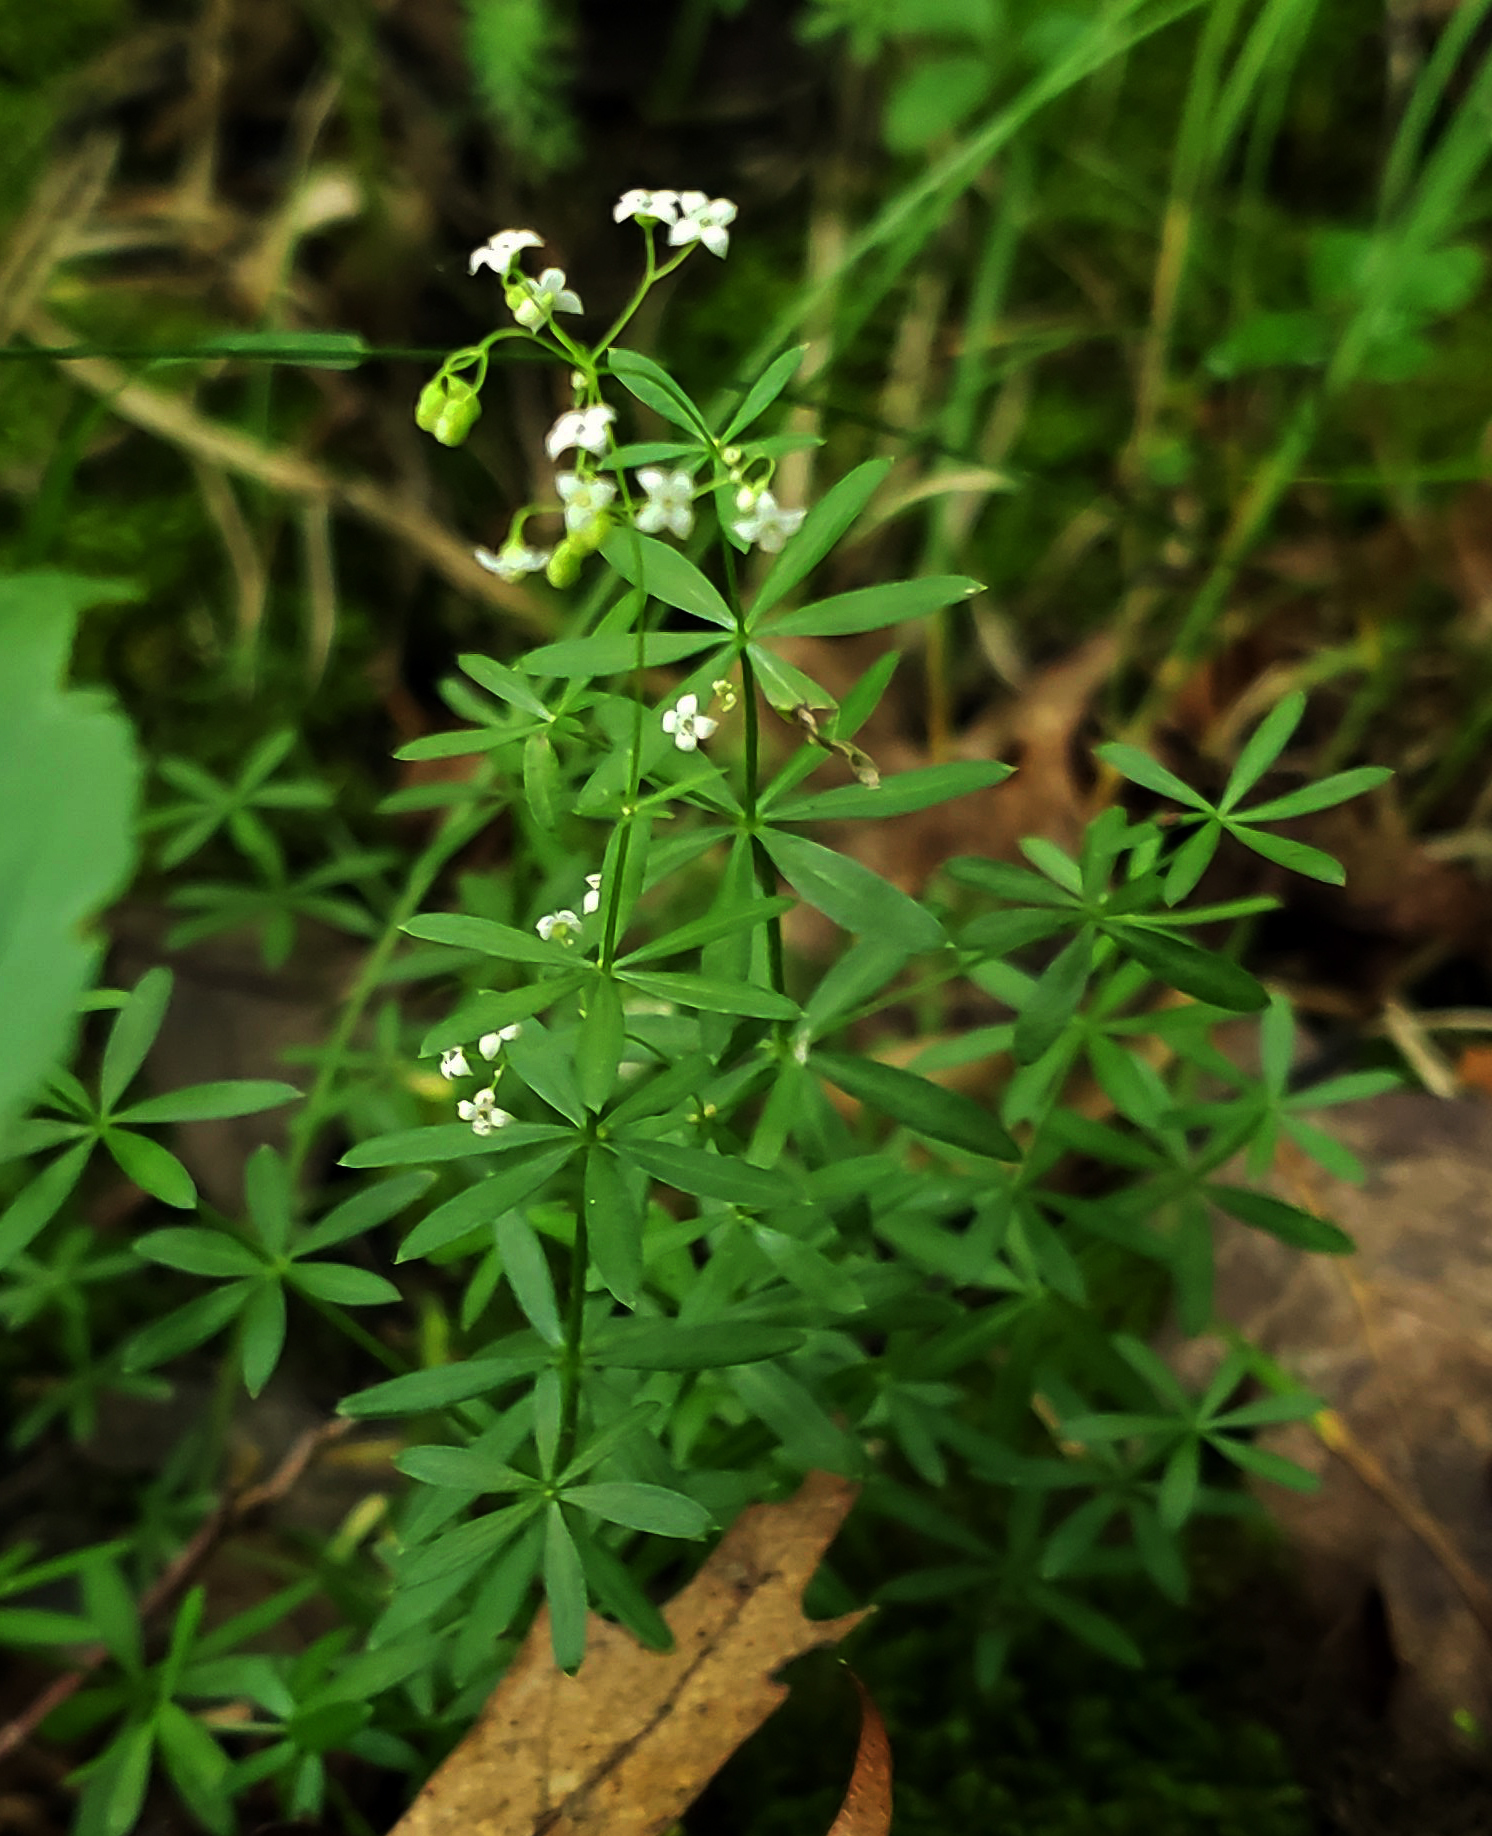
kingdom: Plantae
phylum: Tracheophyta
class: Magnoliopsida
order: Gentianales
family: Rubiaceae
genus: Galium
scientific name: Galium concinnum
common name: Shining bedstraw
